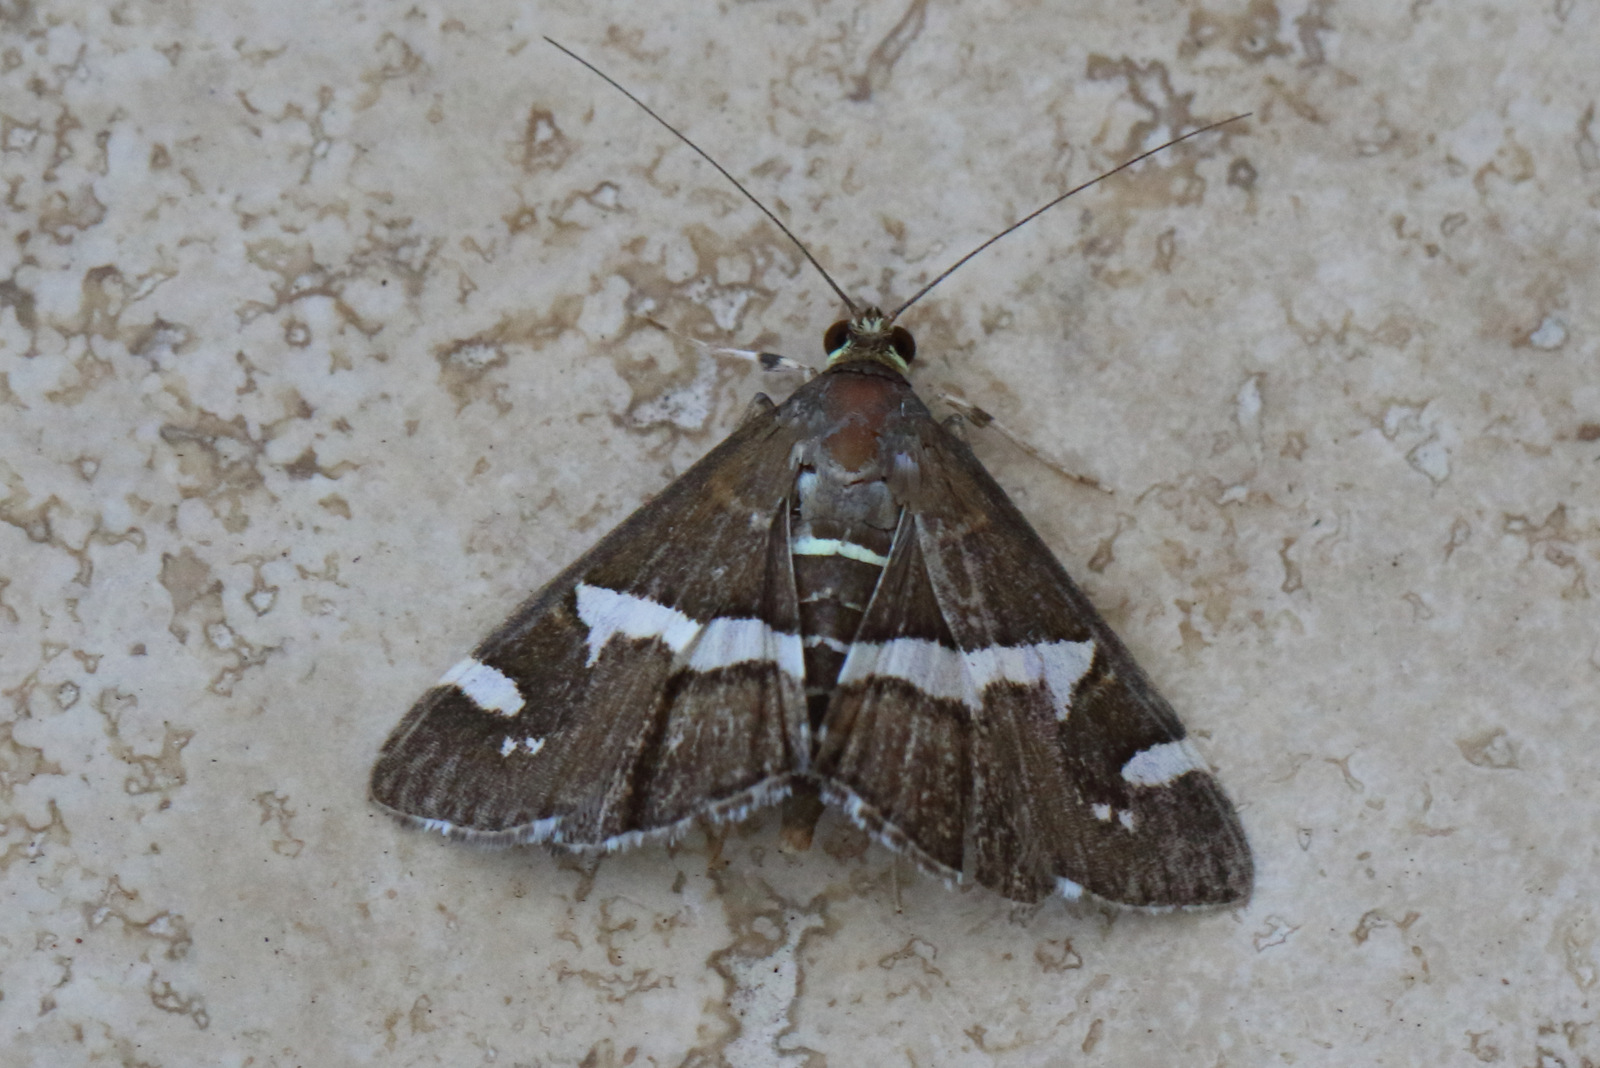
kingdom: Animalia
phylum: Arthropoda
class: Insecta
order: Lepidoptera
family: Crambidae
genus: Spoladea
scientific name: Spoladea recurvalis
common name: Beet webworm moth
